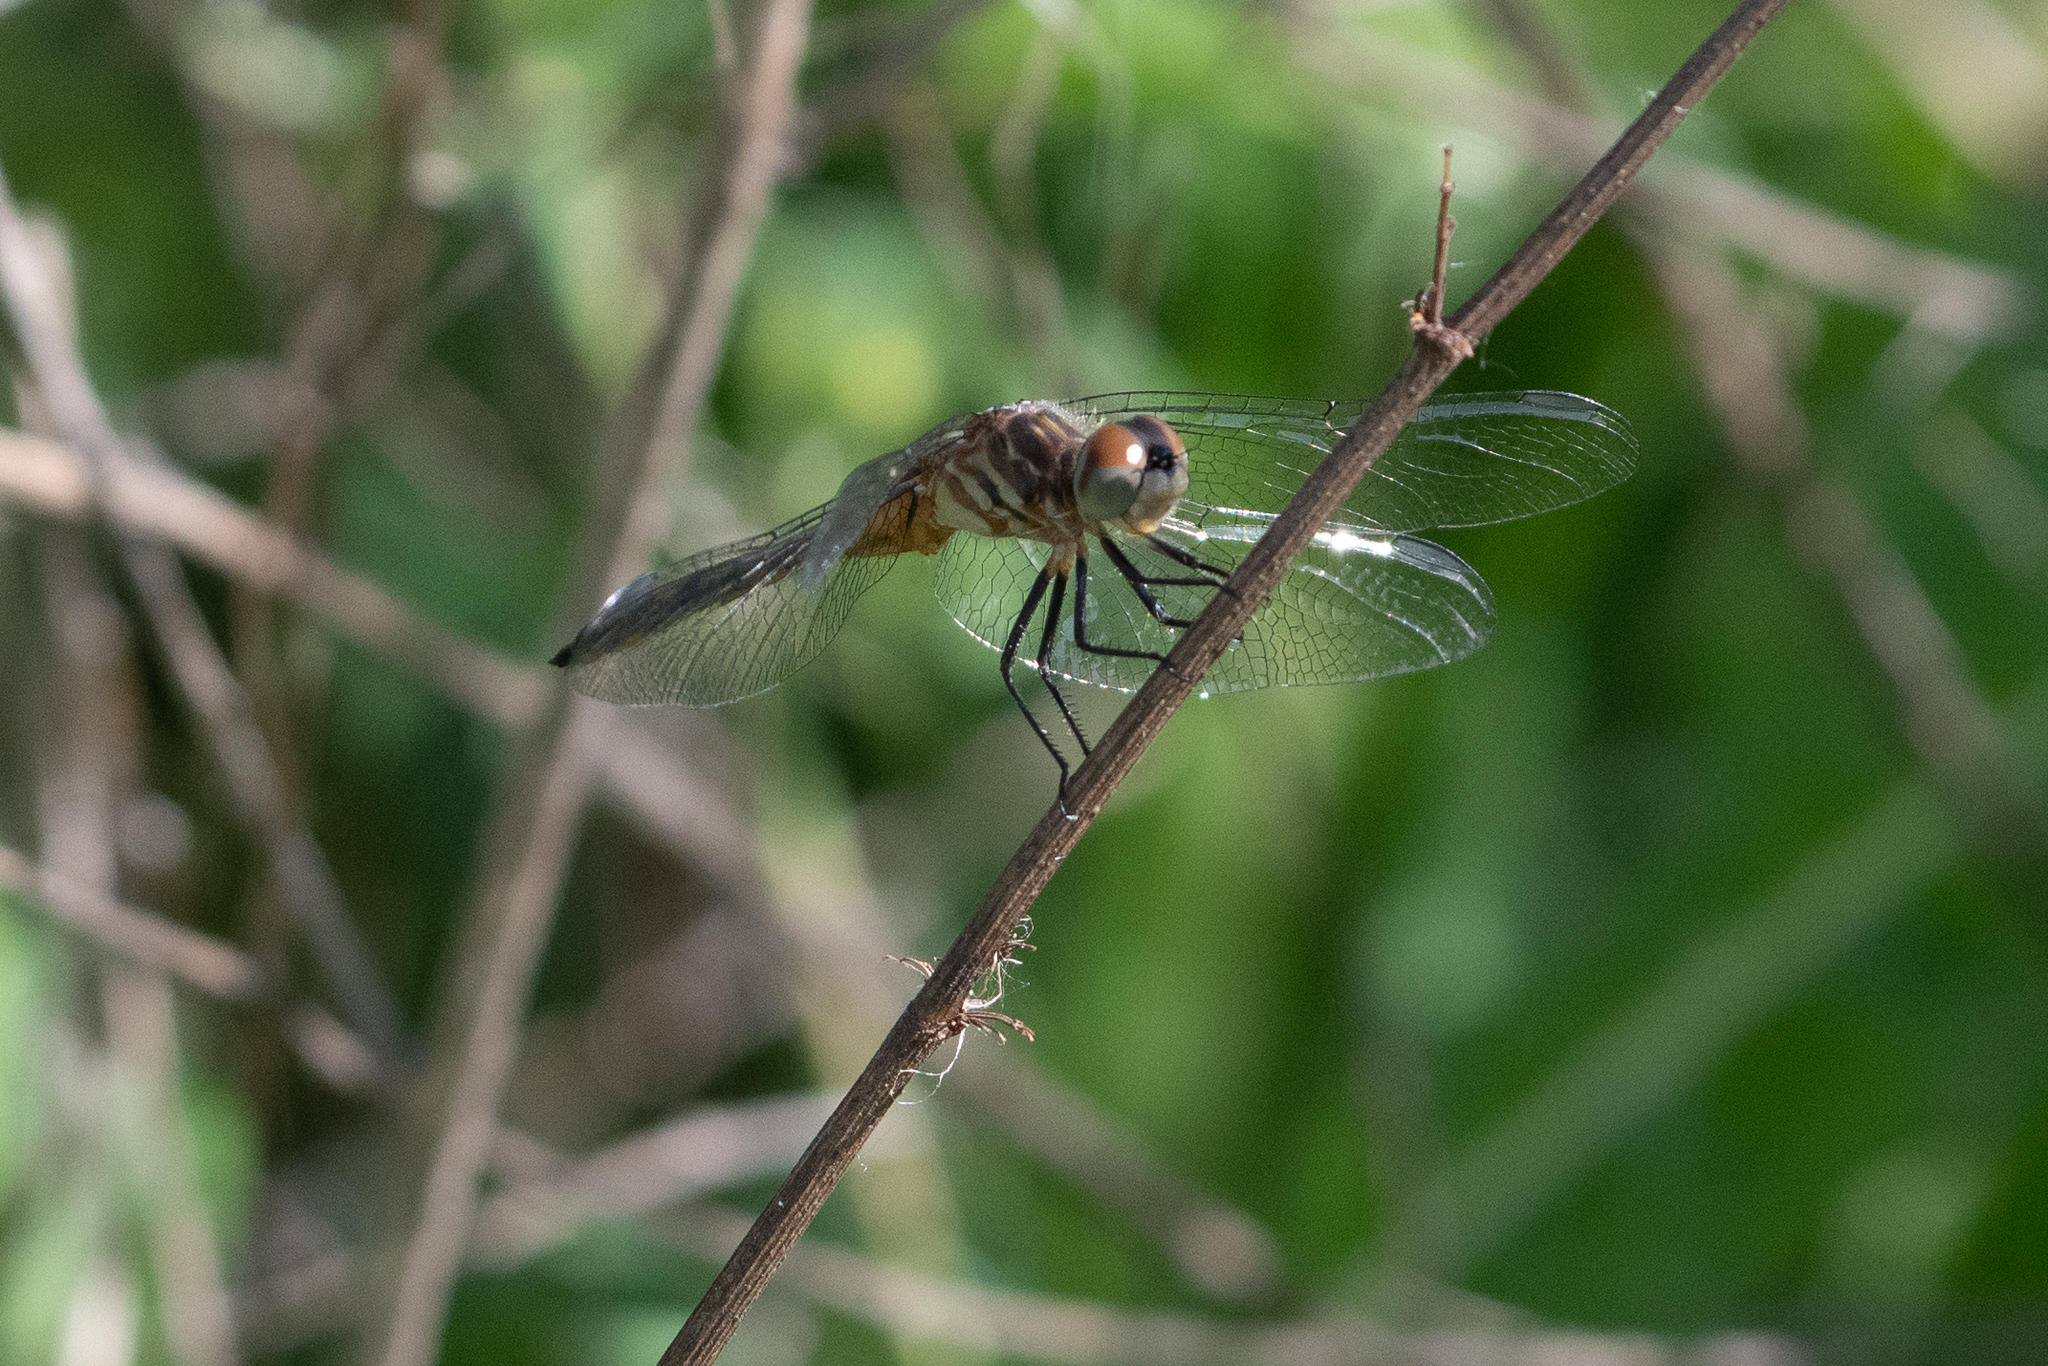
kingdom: Animalia
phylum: Arthropoda
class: Insecta
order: Odonata
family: Libellulidae
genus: Pachydiplax
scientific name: Pachydiplax longipennis
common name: Blue dasher
